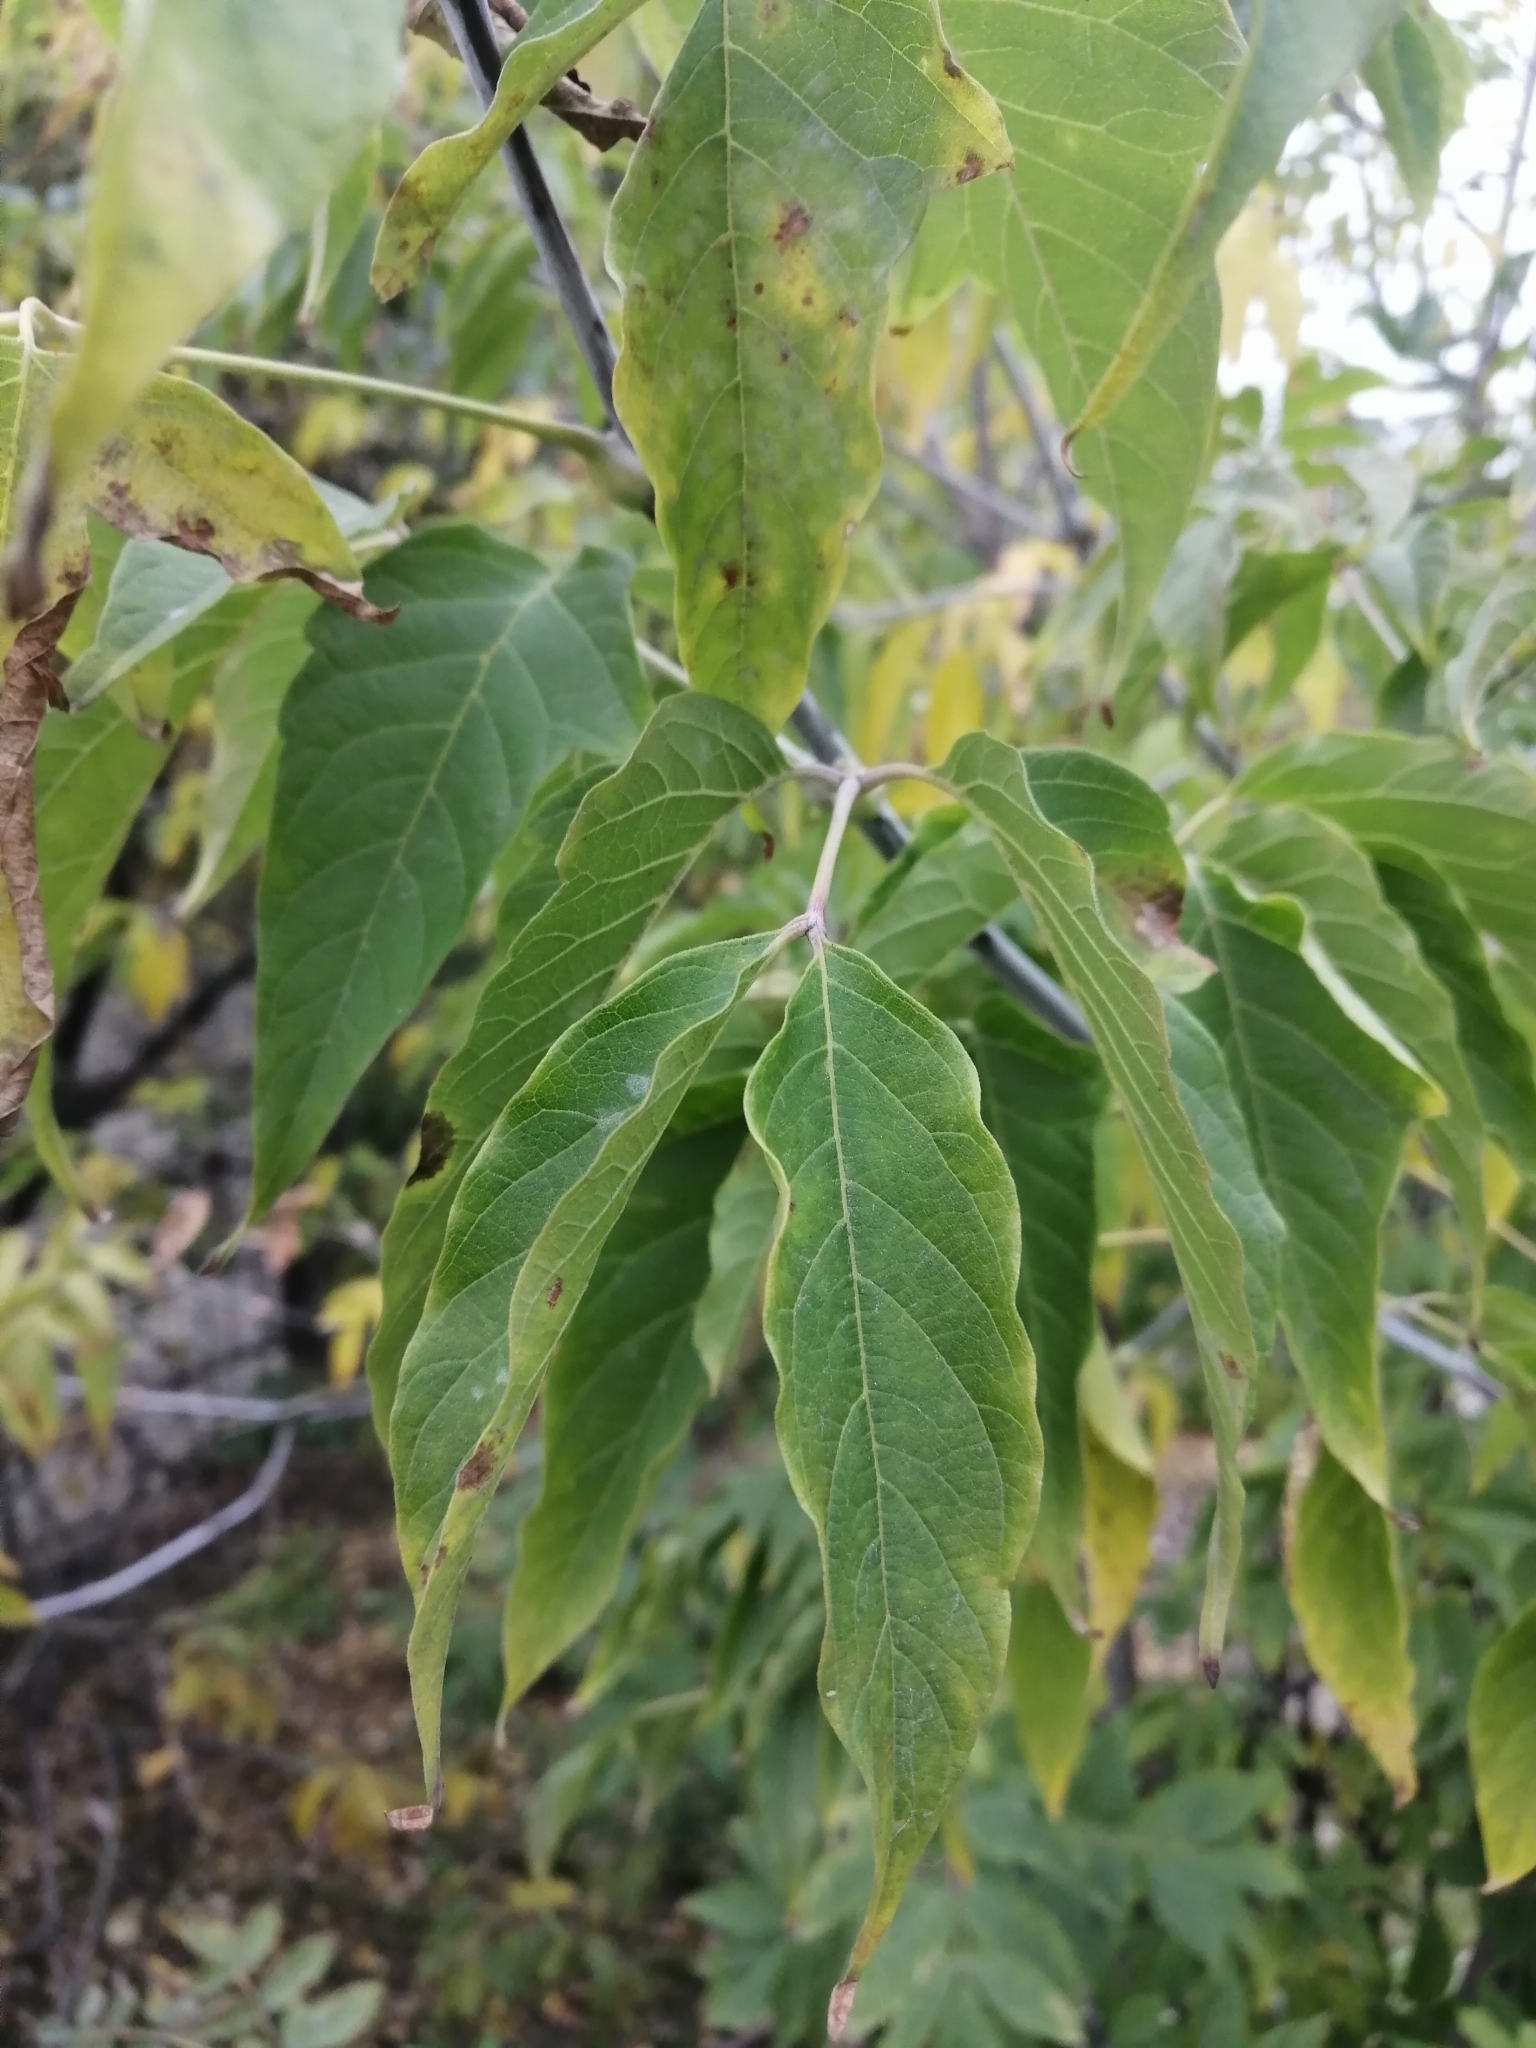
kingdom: Plantae
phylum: Tracheophyta
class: Magnoliopsida
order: Sapindales
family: Sapindaceae
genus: Acer
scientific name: Acer negundo
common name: Ashleaf maple
